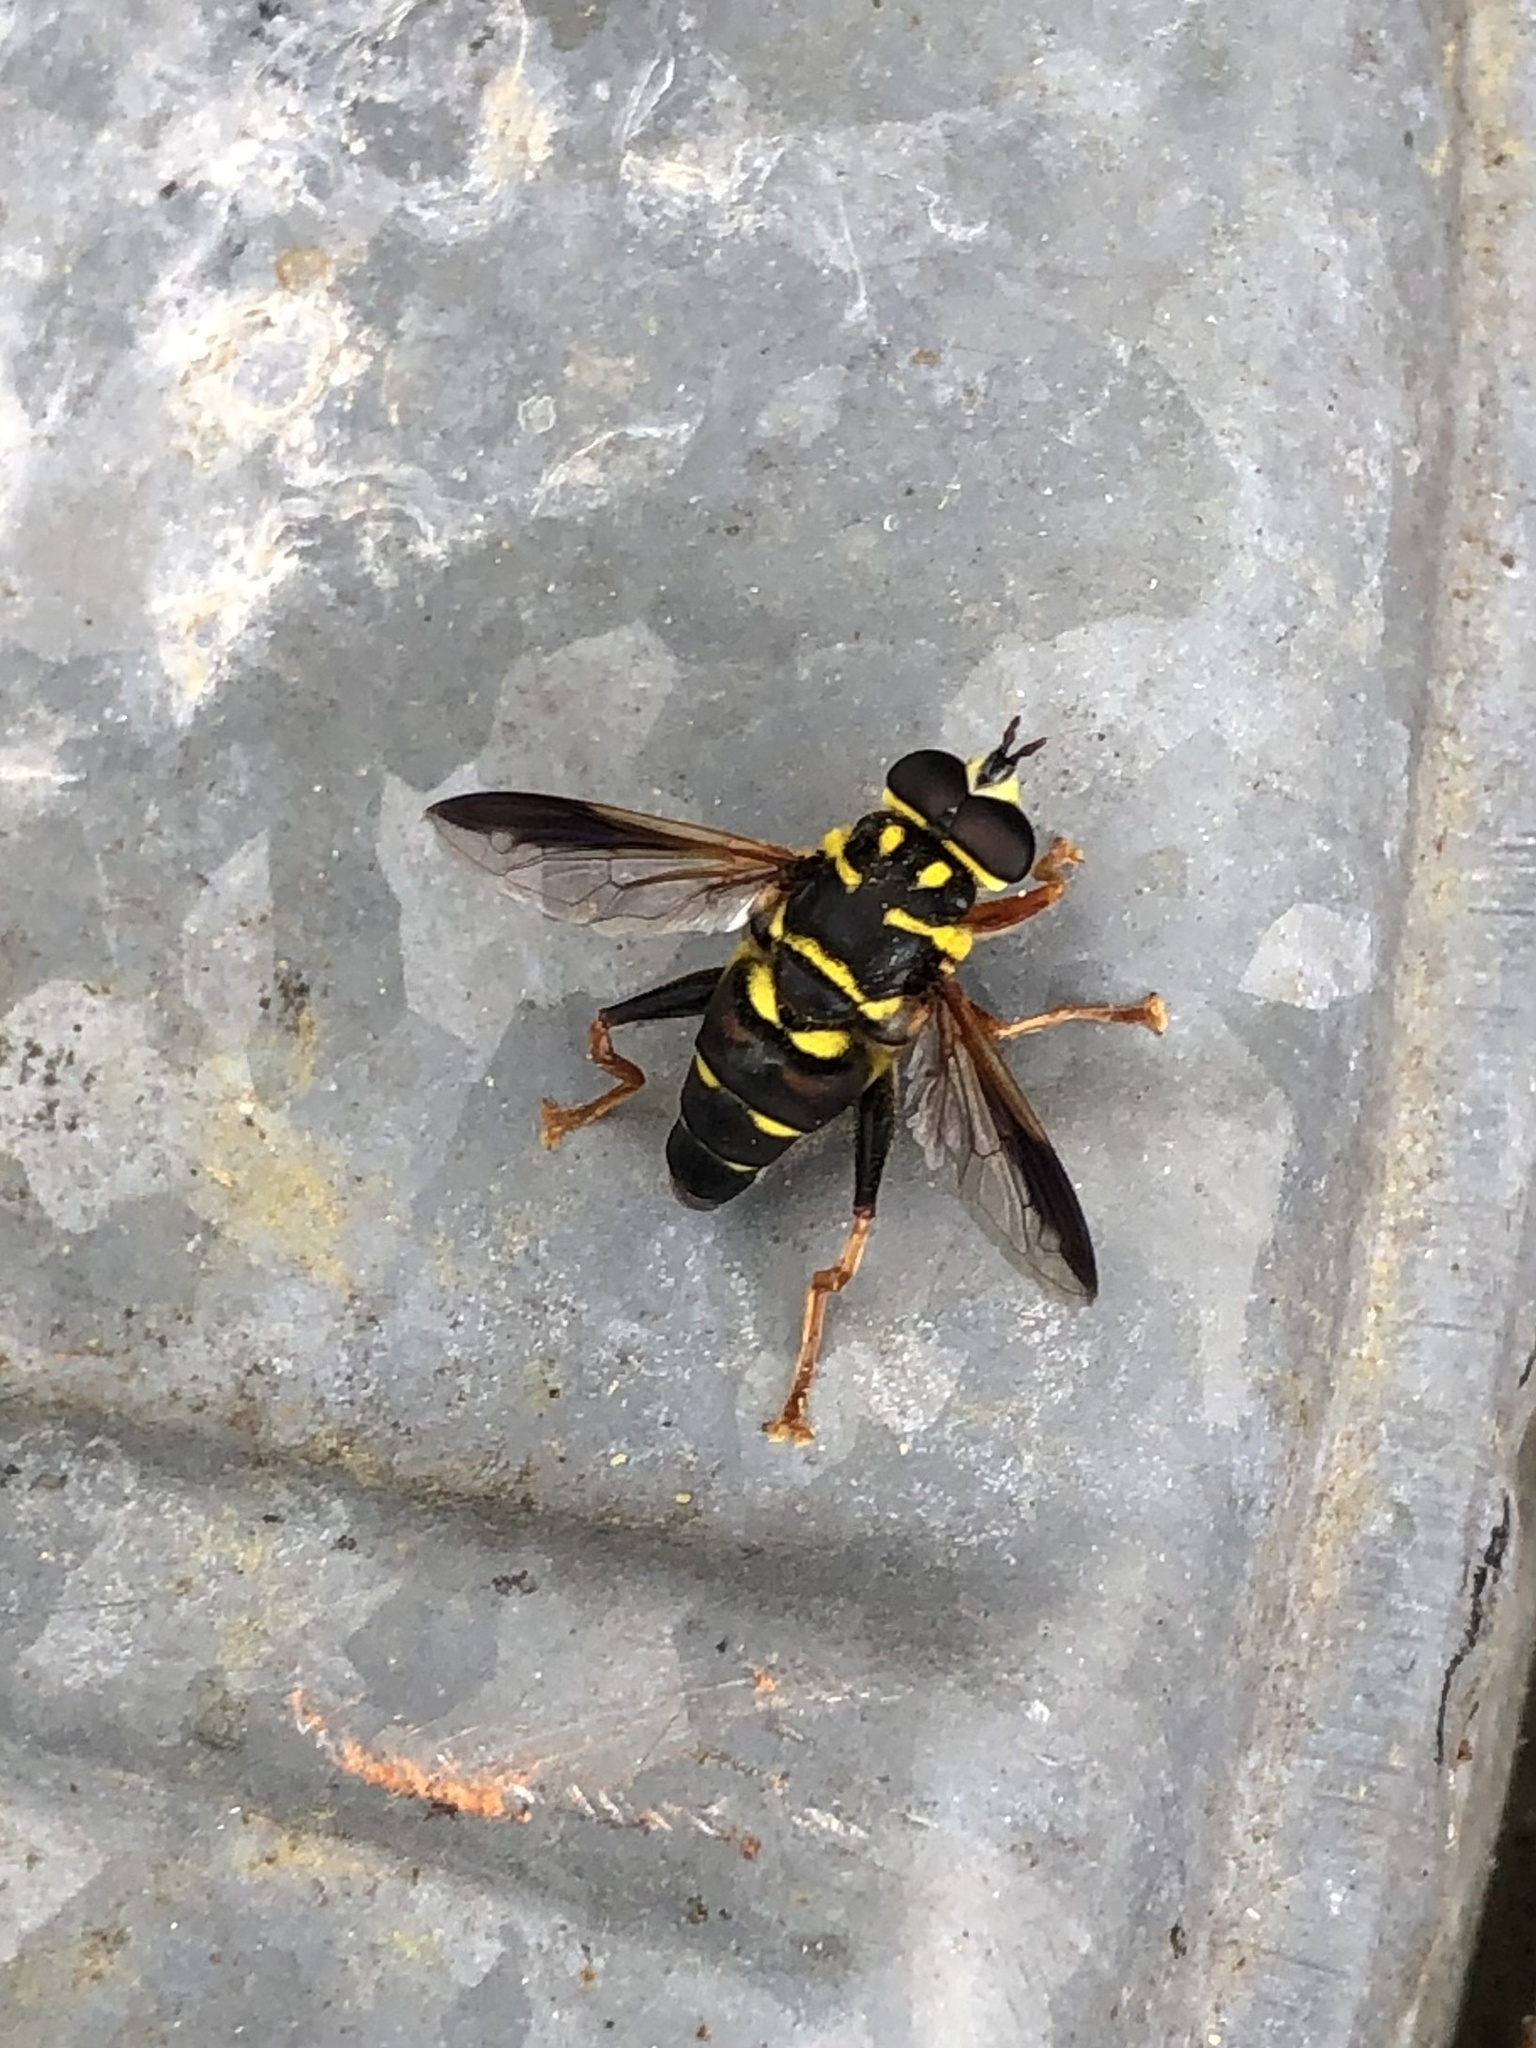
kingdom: Animalia
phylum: Arthropoda
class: Insecta
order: Diptera
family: Syrphidae
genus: Meromacrus
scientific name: Meromacrus acutus
